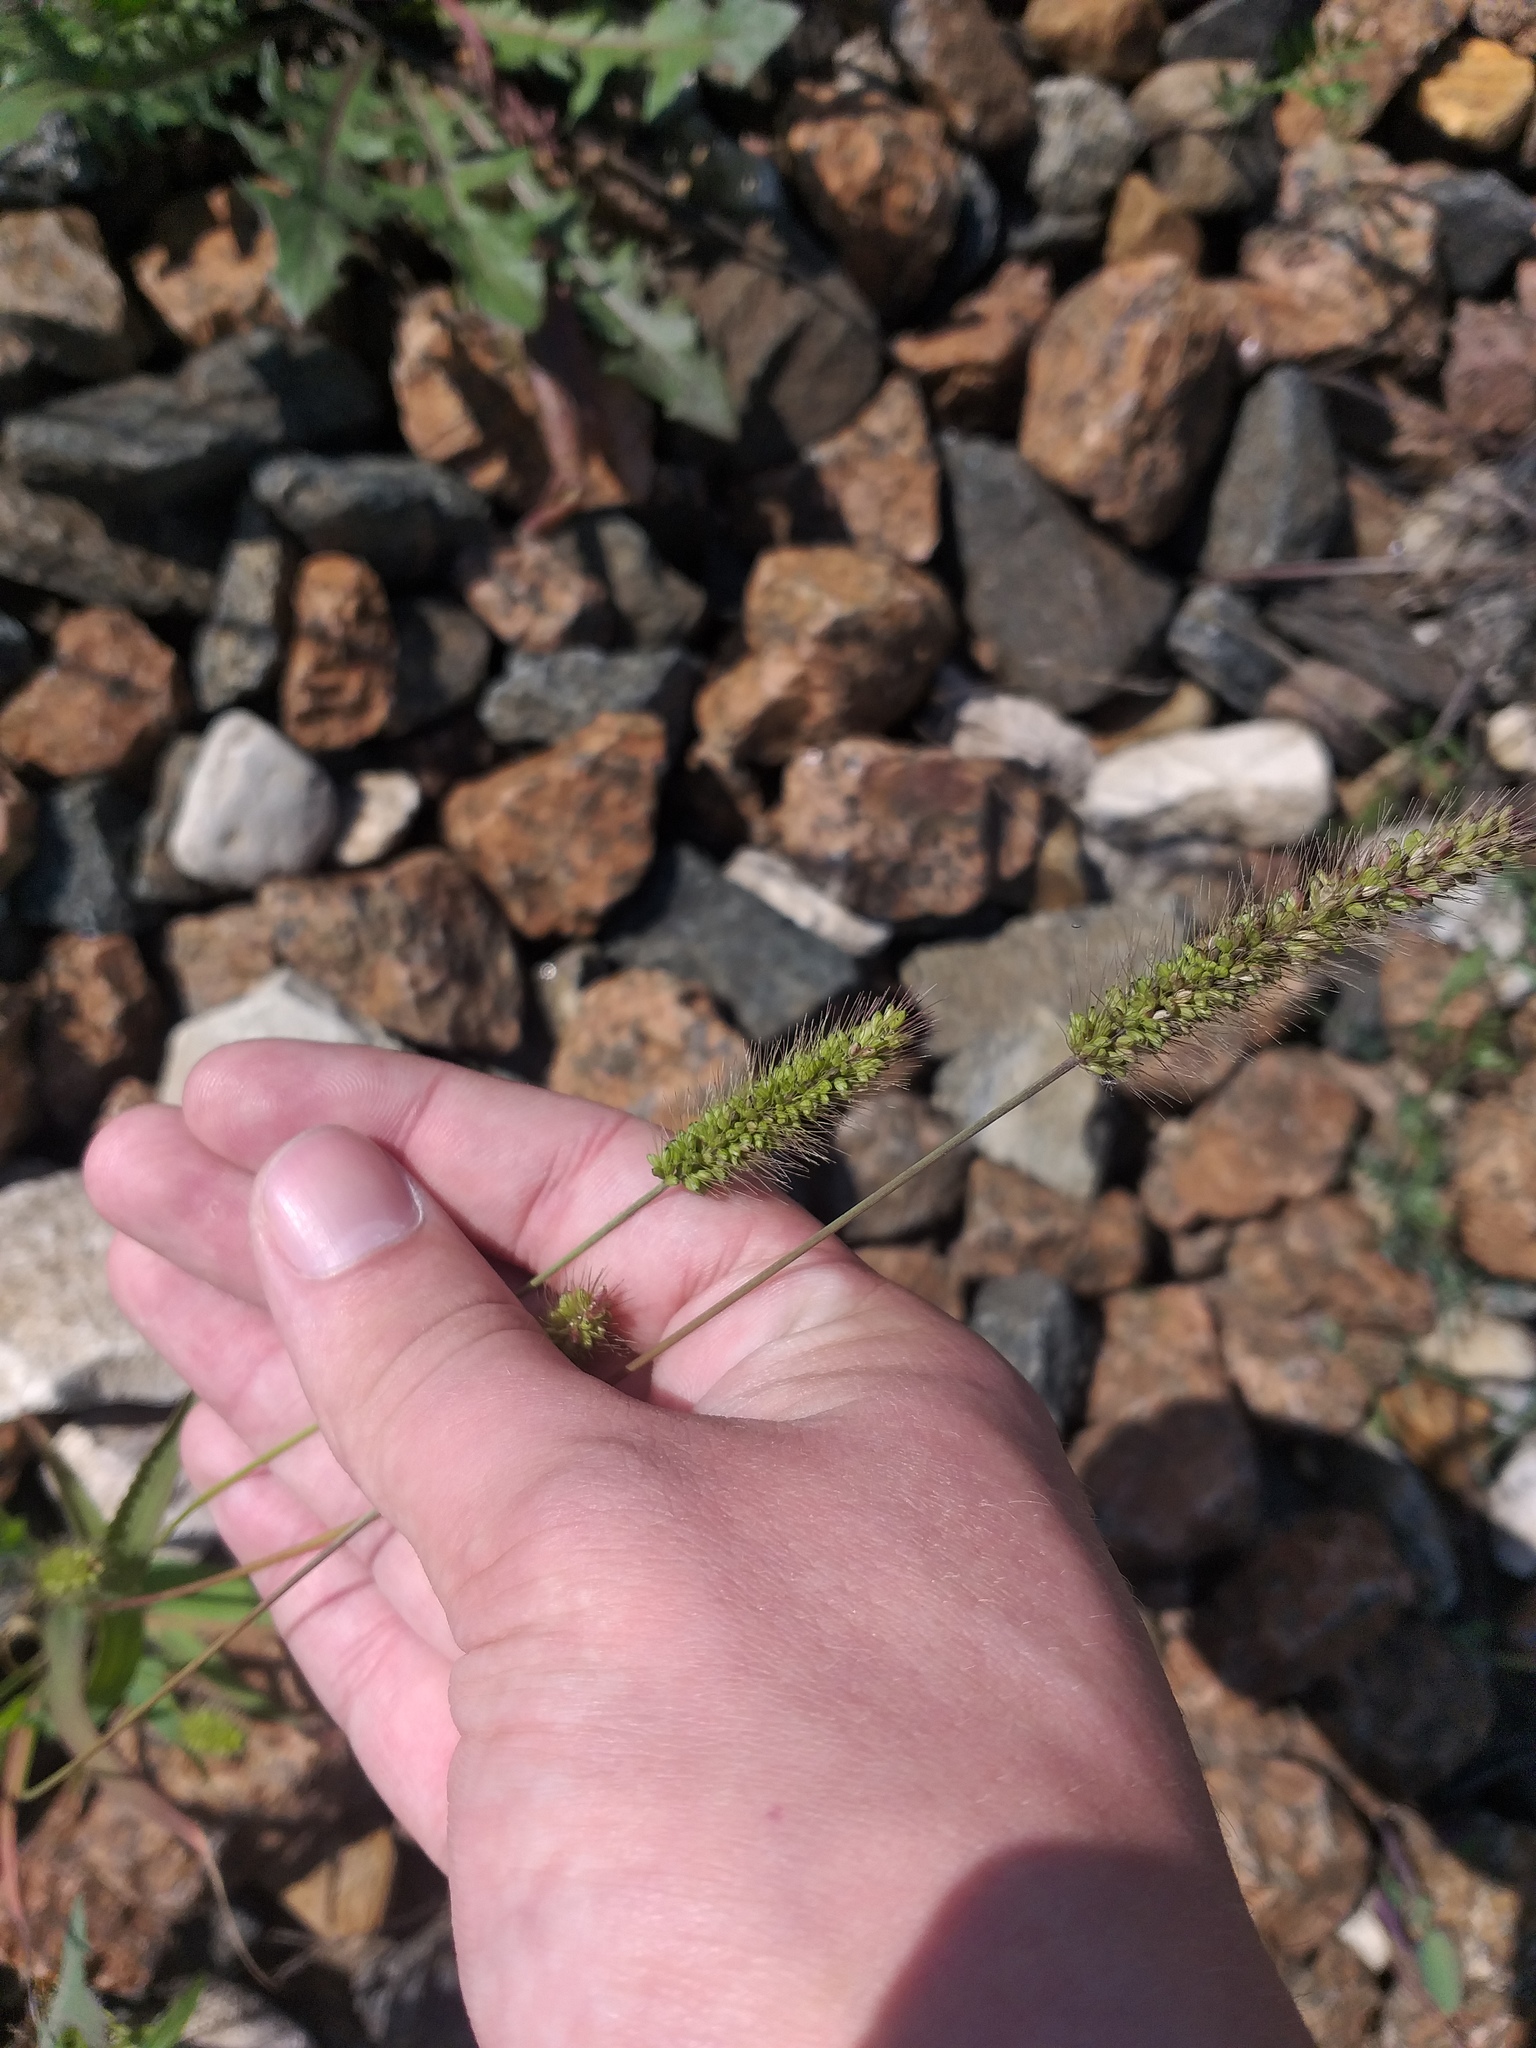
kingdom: Plantae
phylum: Tracheophyta
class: Liliopsida
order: Poales
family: Poaceae
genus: Setaria
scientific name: Setaria viridis
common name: Green bristlegrass
